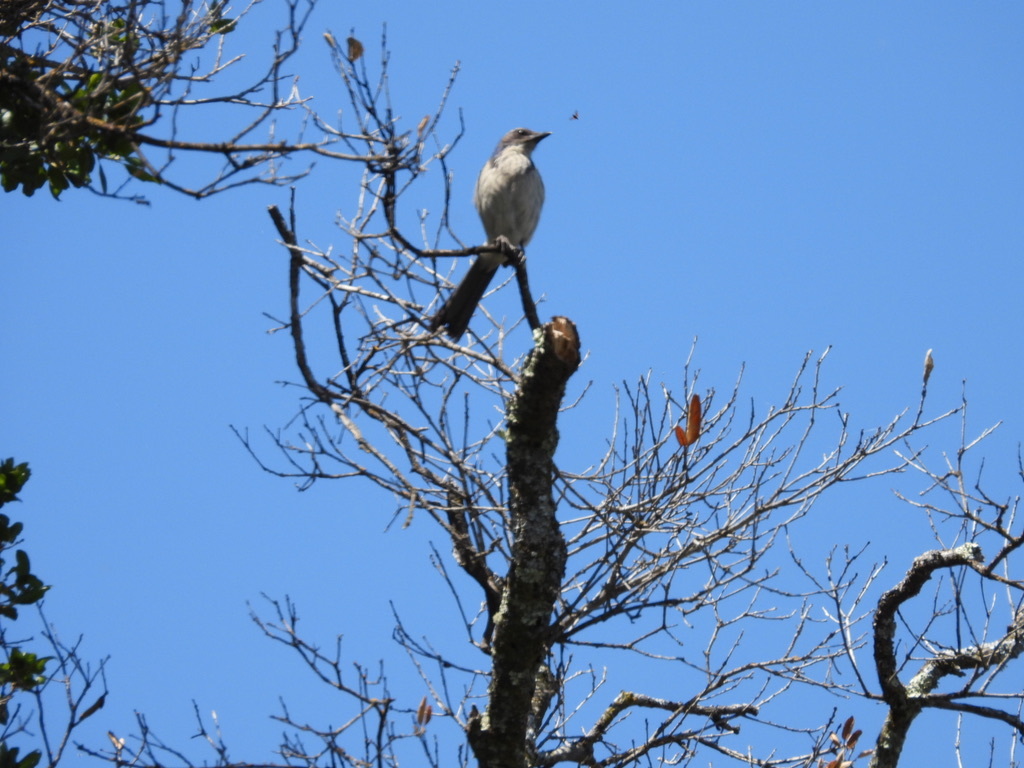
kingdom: Animalia
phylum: Chordata
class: Aves
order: Passeriformes
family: Corvidae
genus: Aphelocoma
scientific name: Aphelocoma californica
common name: California scrub-jay
